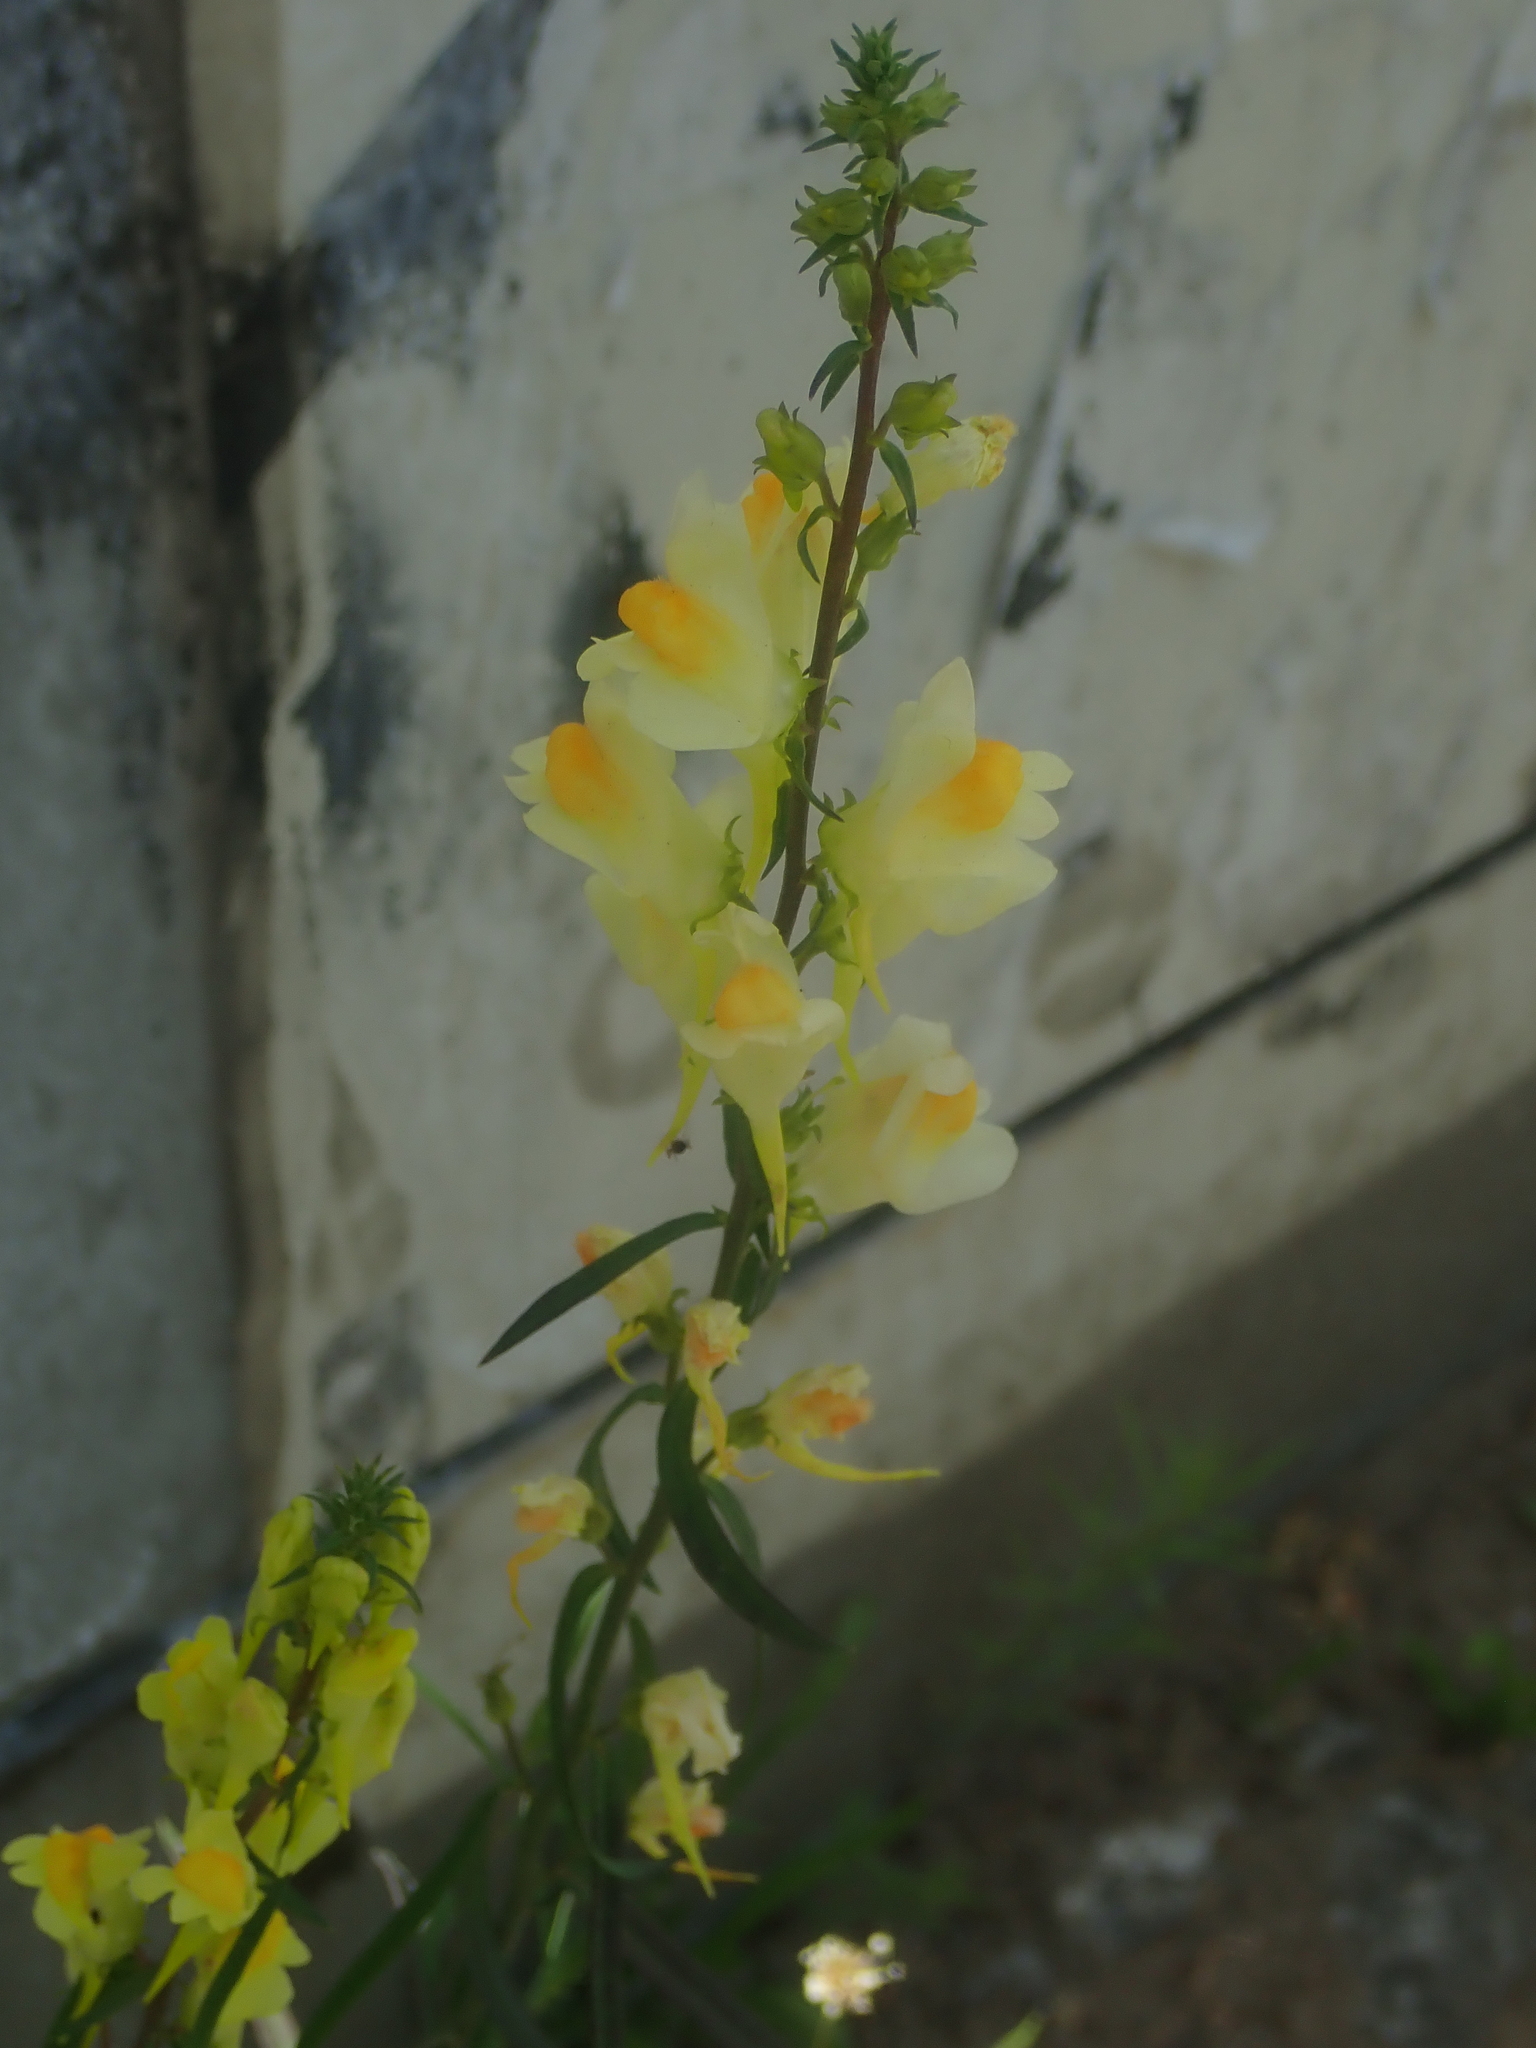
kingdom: Plantae
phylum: Tracheophyta
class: Magnoliopsida
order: Lamiales
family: Plantaginaceae
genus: Linaria
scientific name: Linaria vulgaris
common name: Butter and eggs
